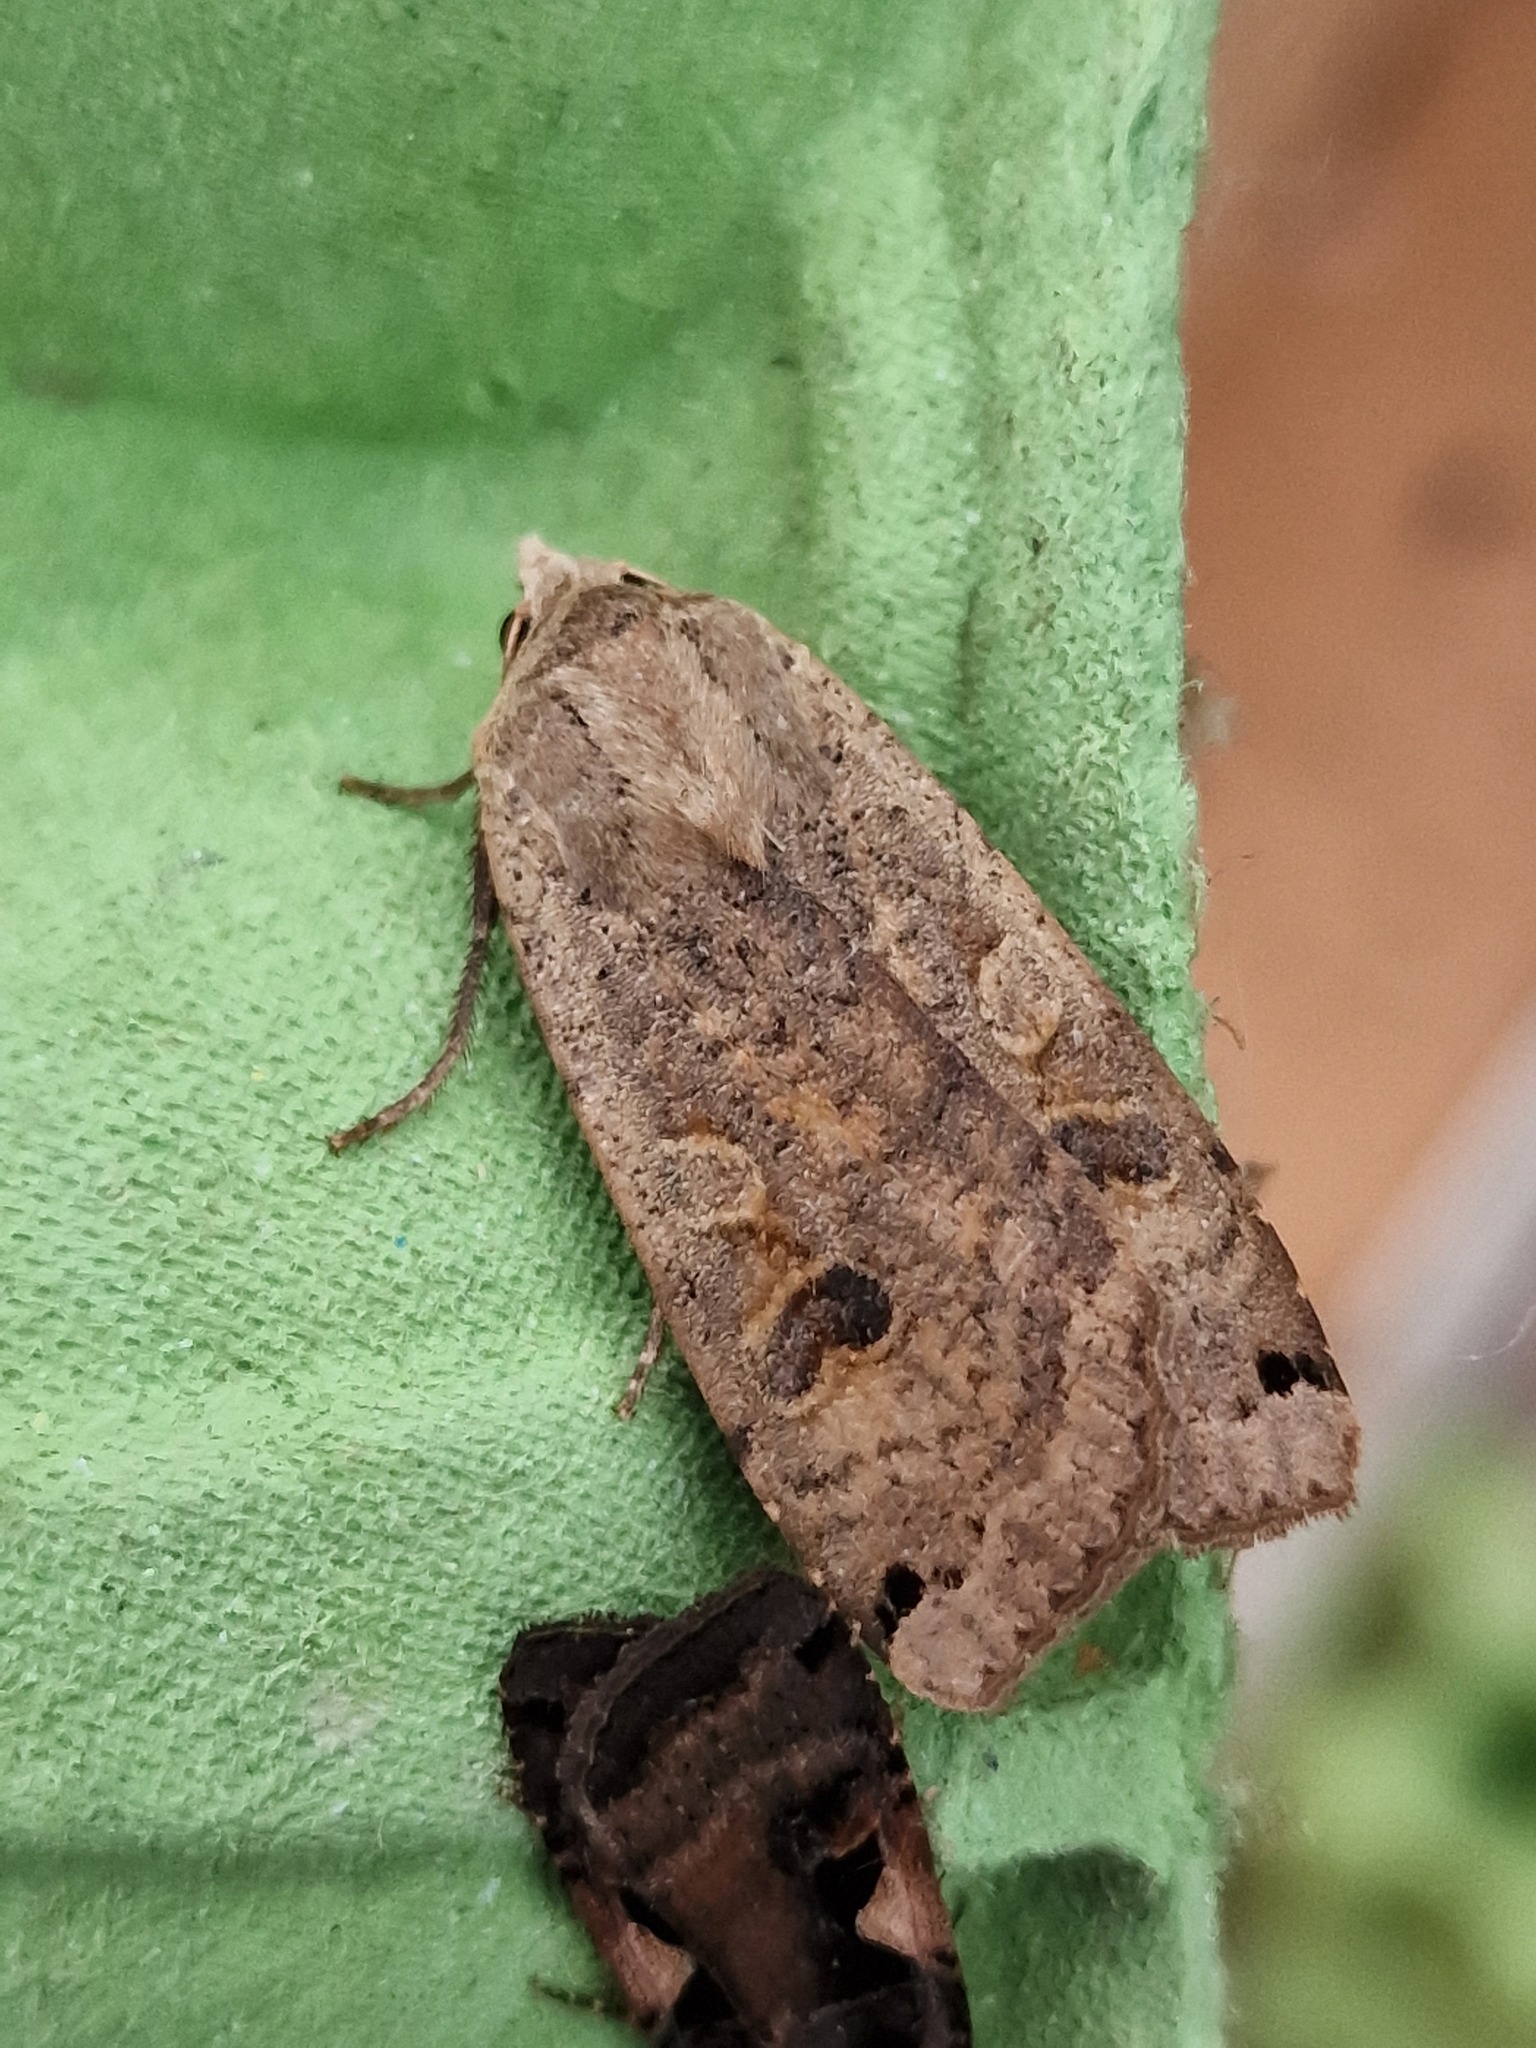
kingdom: Animalia
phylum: Arthropoda
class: Insecta
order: Lepidoptera
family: Noctuidae
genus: Noctua
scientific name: Noctua pronuba
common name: Large yellow underwing
